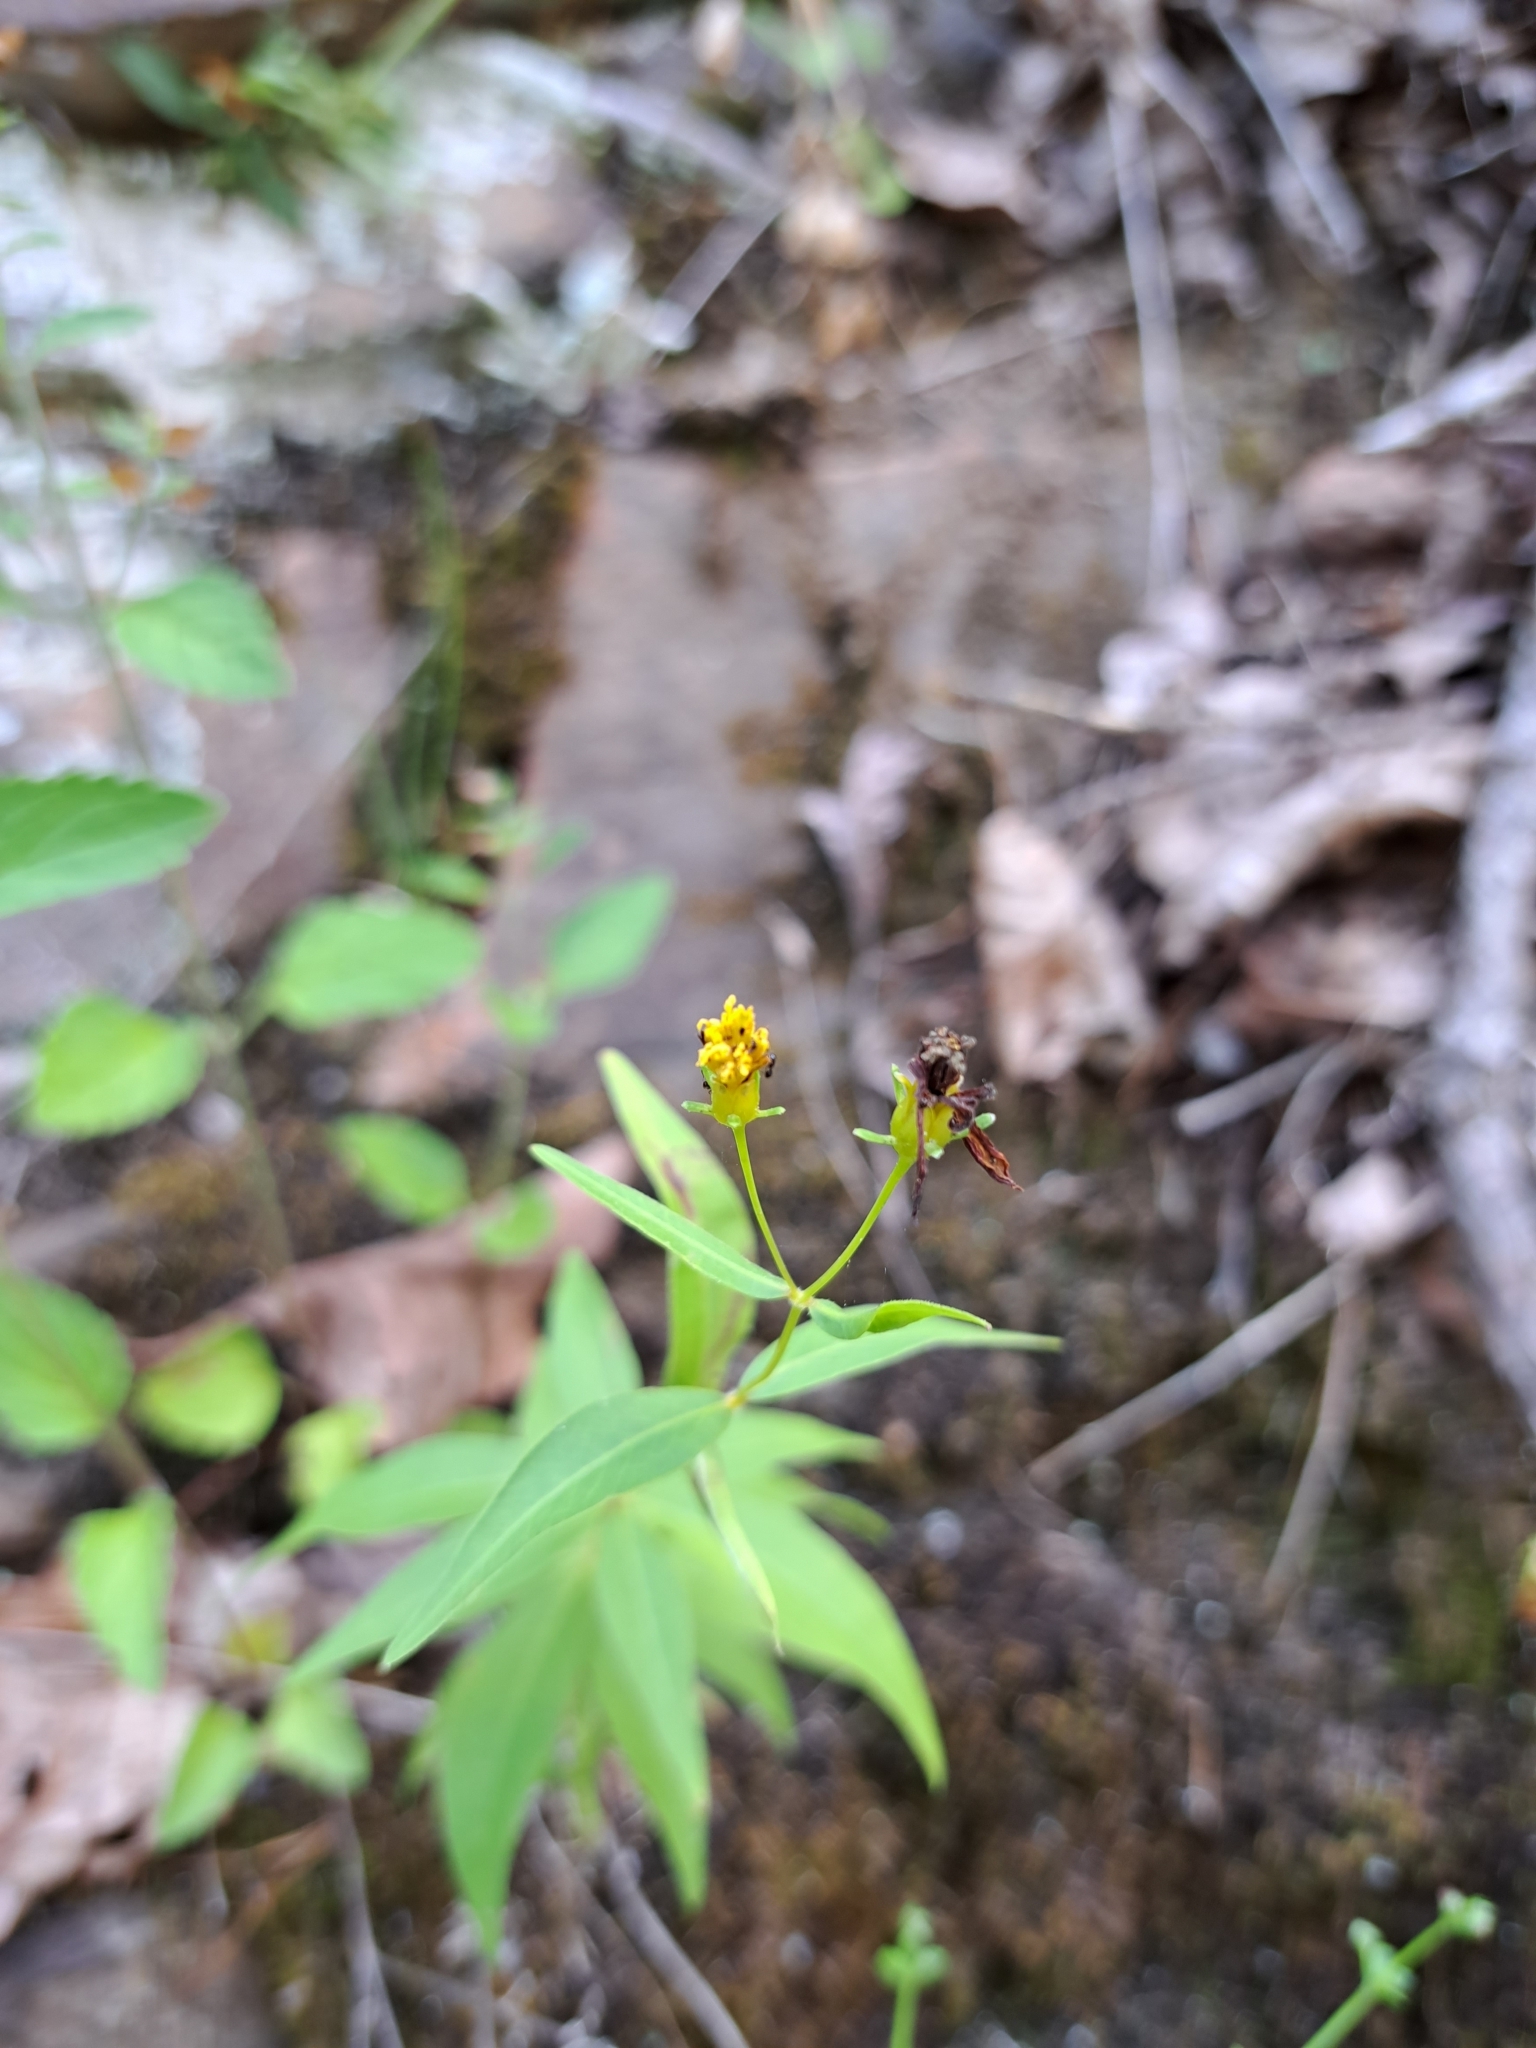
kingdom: Plantae
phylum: Tracheophyta
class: Magnoliopsida
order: Asterales
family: Asteraceae
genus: Coreopsis
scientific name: Coreopsis major
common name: Forest tickseed
